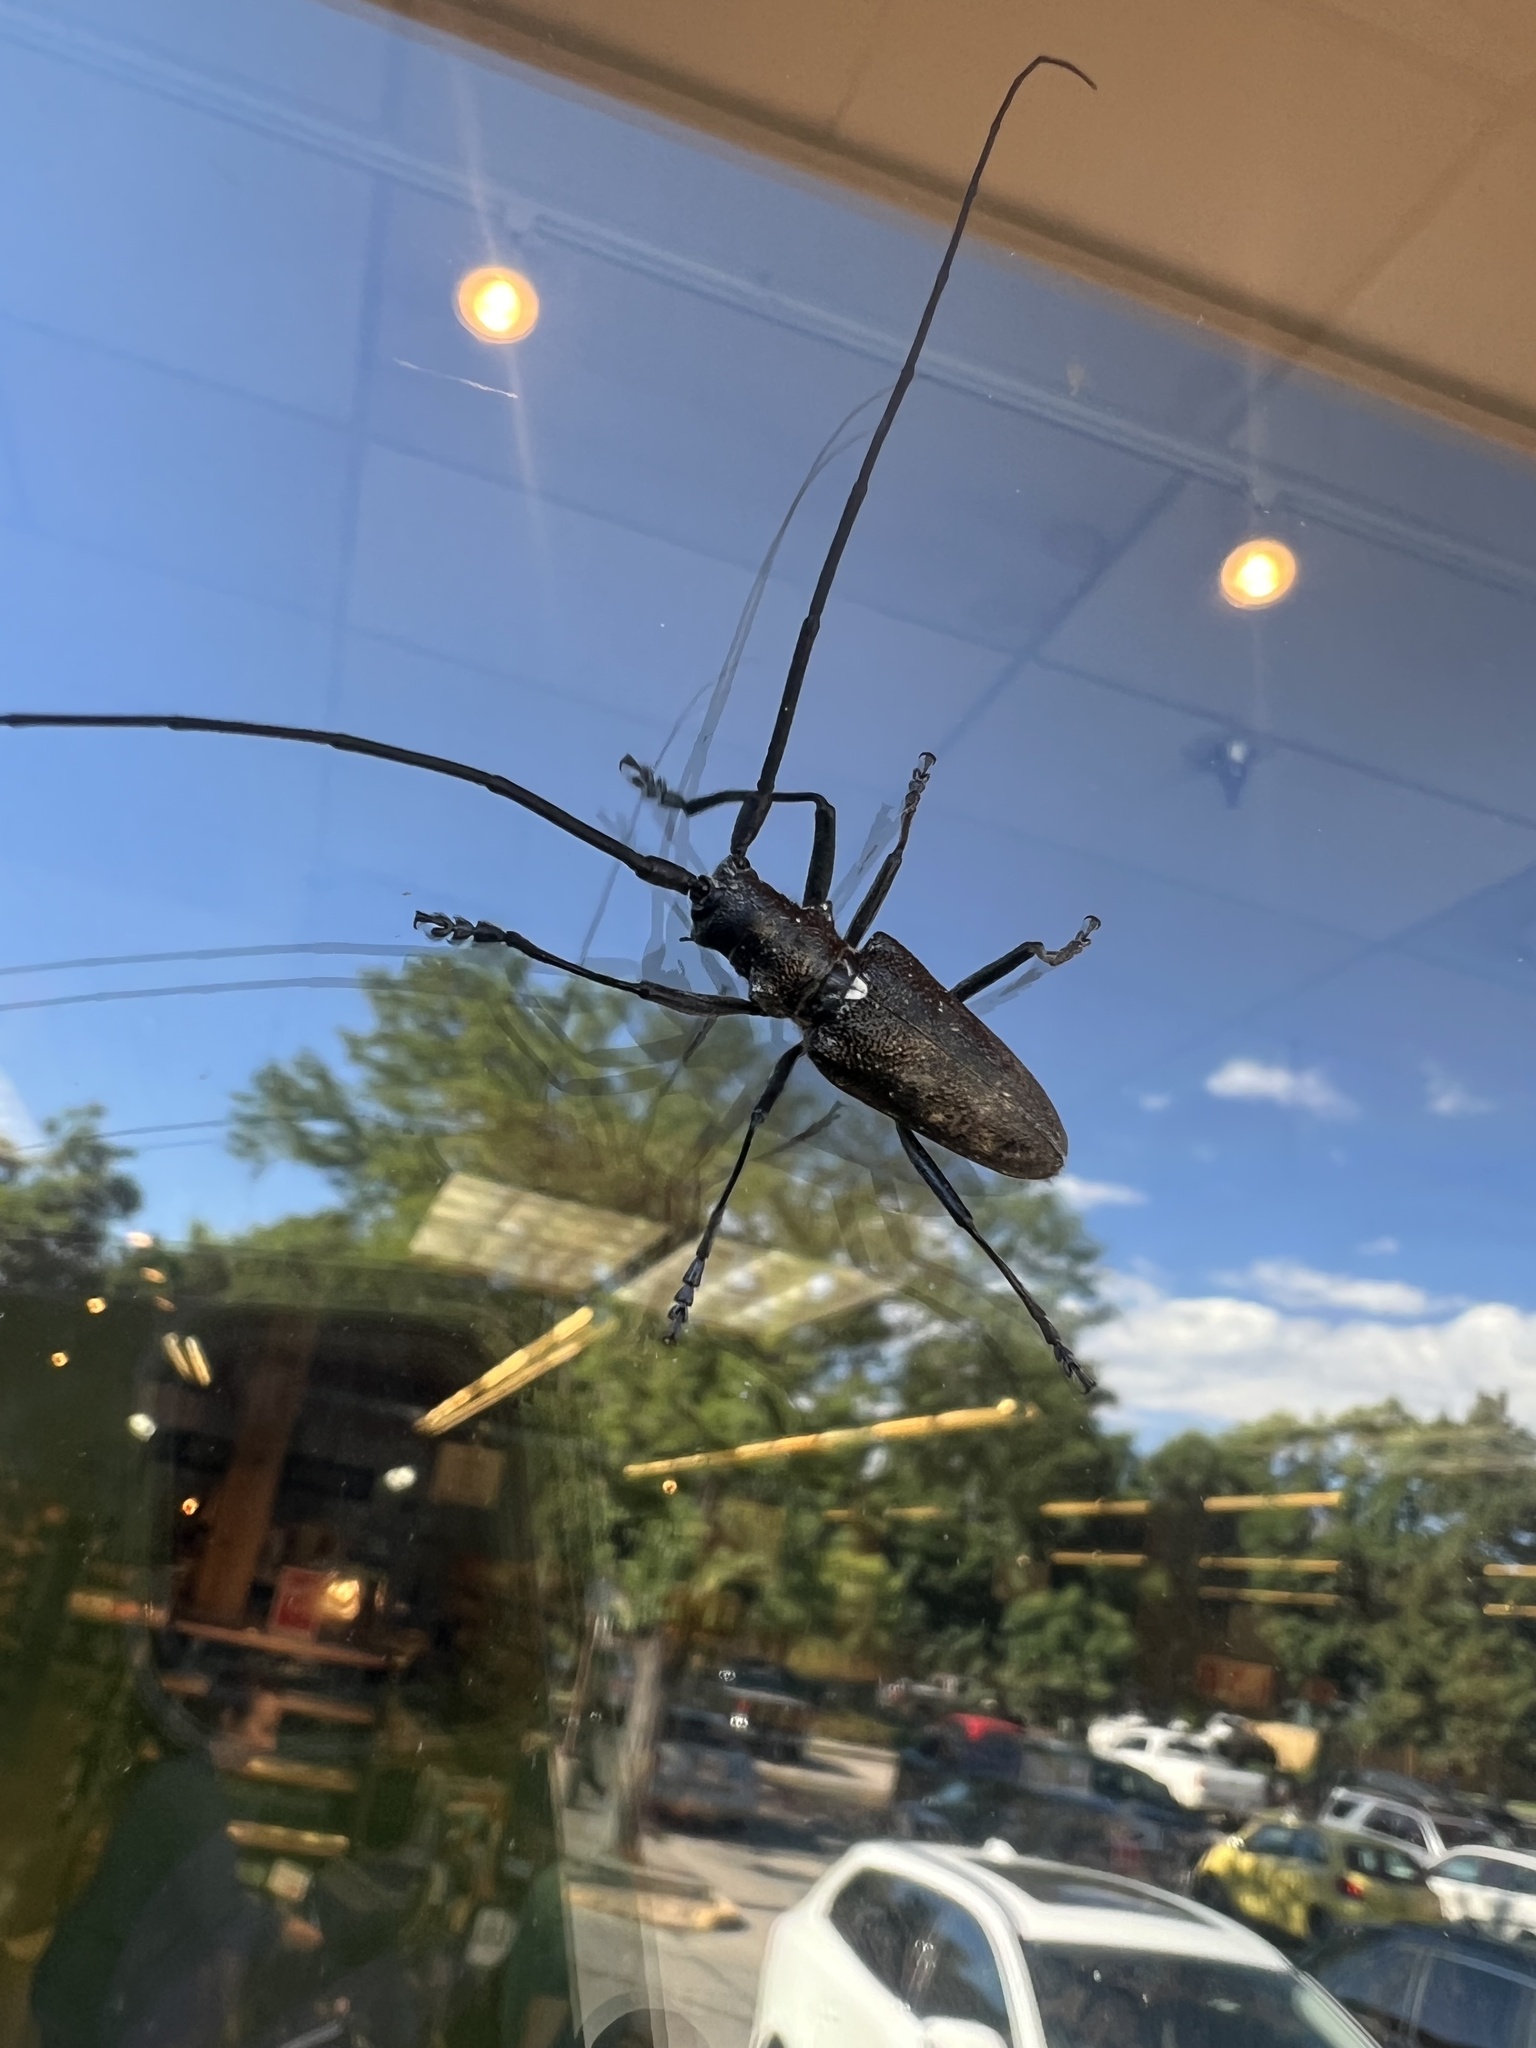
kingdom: Animalia
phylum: Arthropoda
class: Insecta
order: Coleoptera
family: Cerambycidae
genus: Monochamus
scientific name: Monochamus scutellatus
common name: White-spotted sawyer beetle
